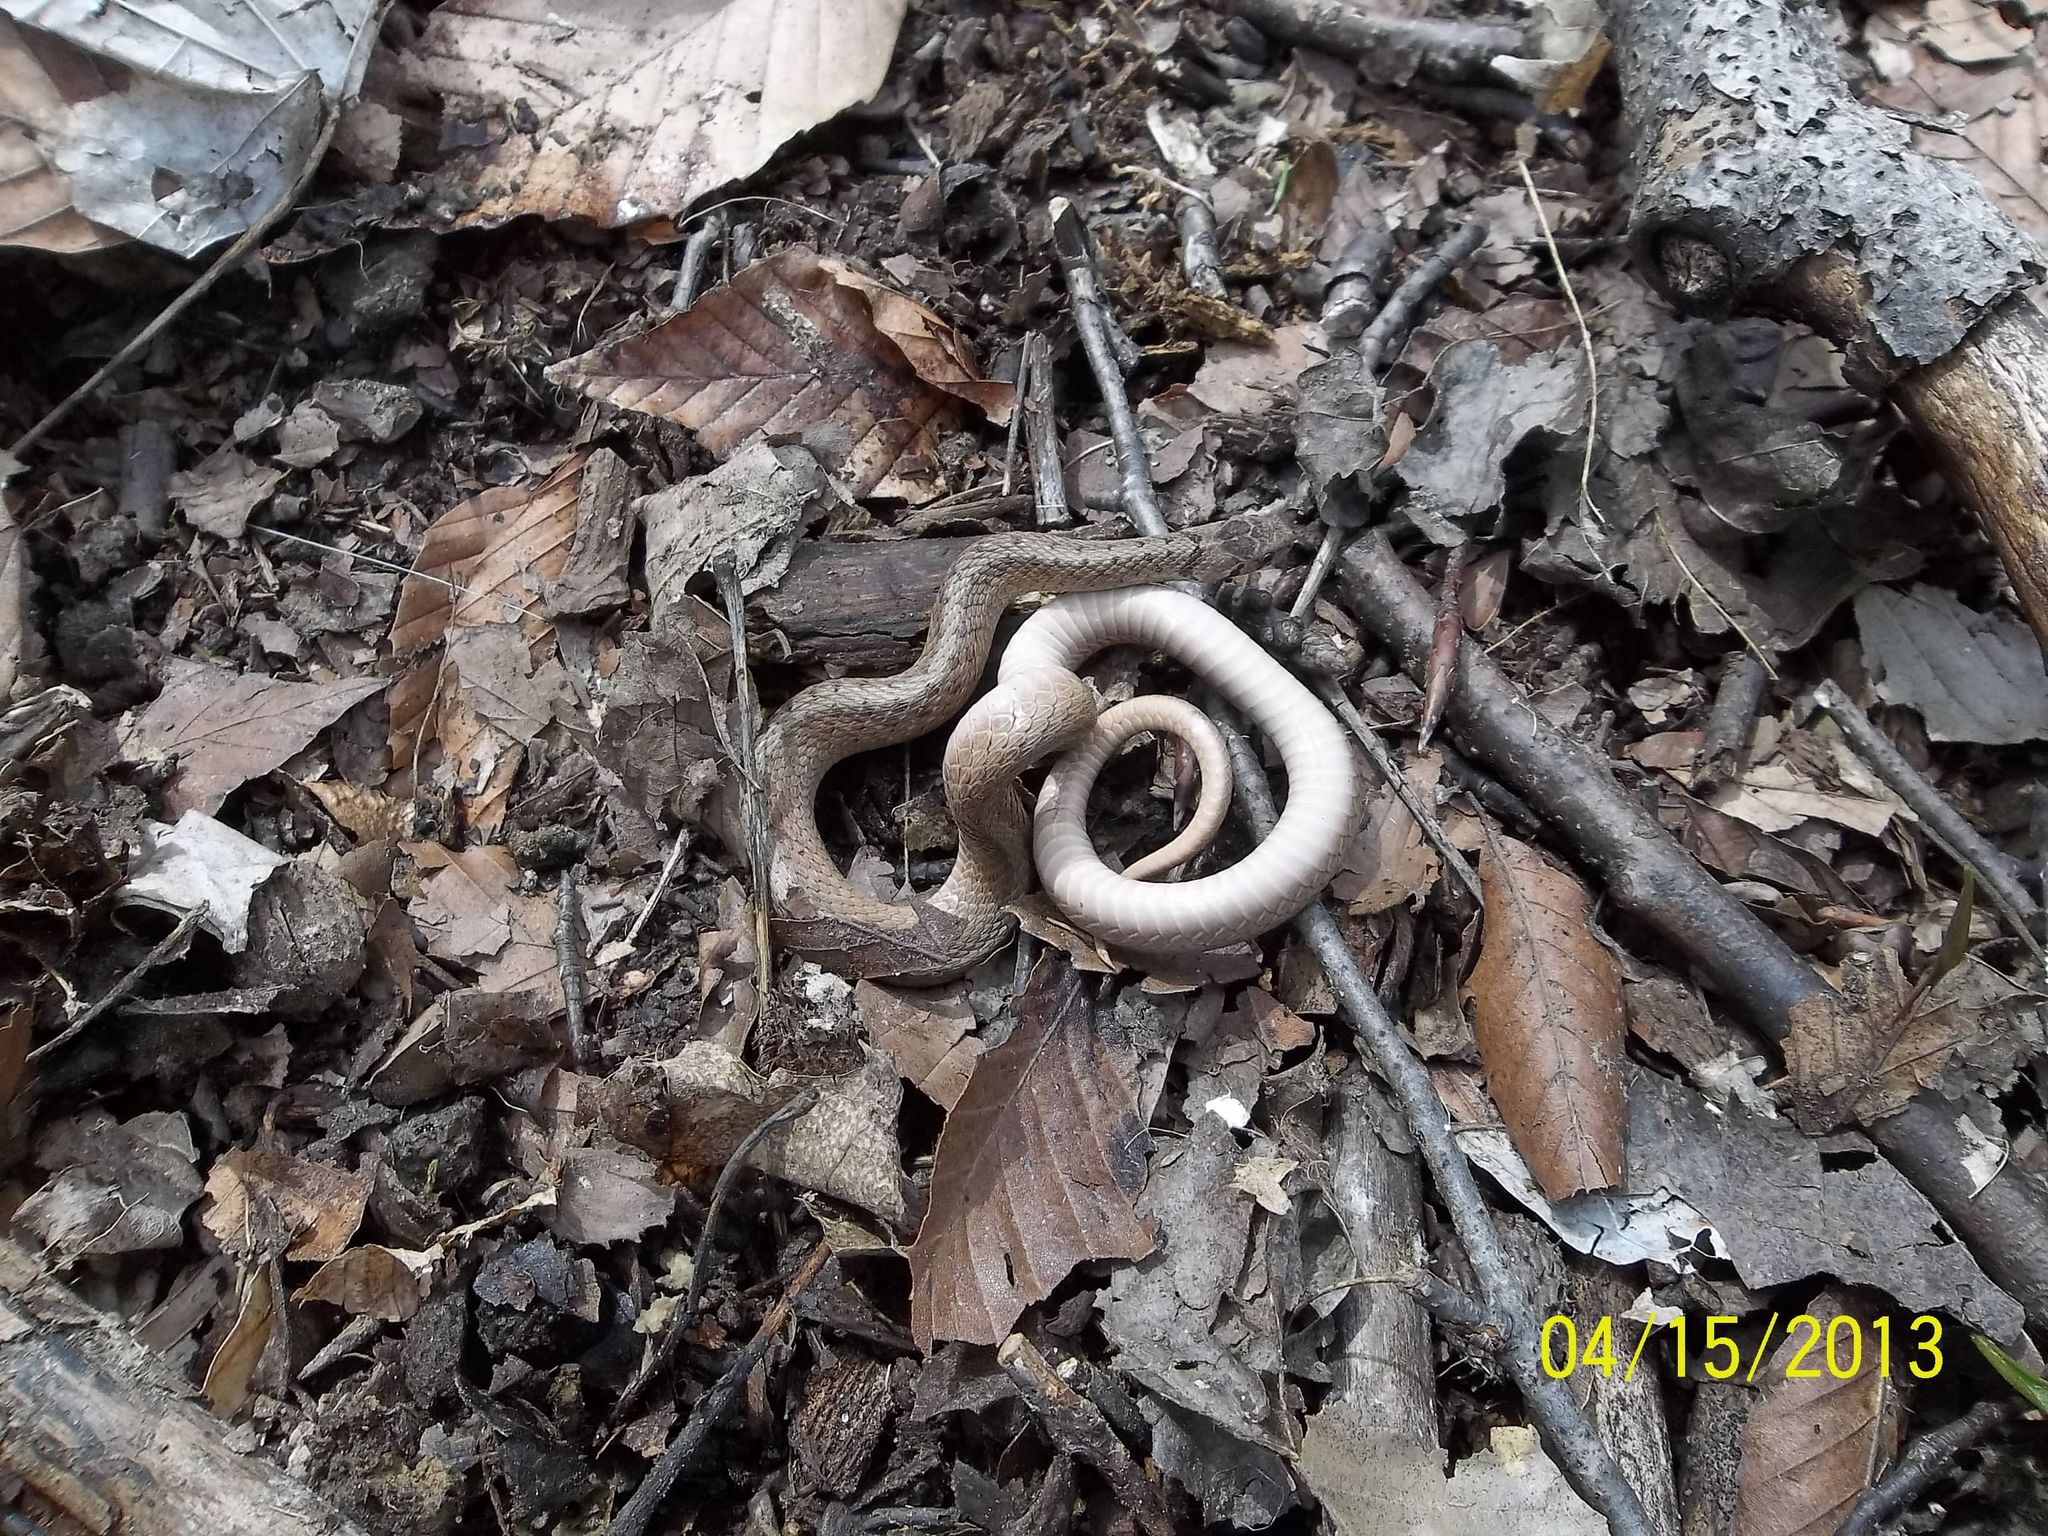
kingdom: Animalia
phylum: Chordata
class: Squamata
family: Colubridae
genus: Storeria
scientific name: Storeria dekayi
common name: (dekay’s) brown snake
